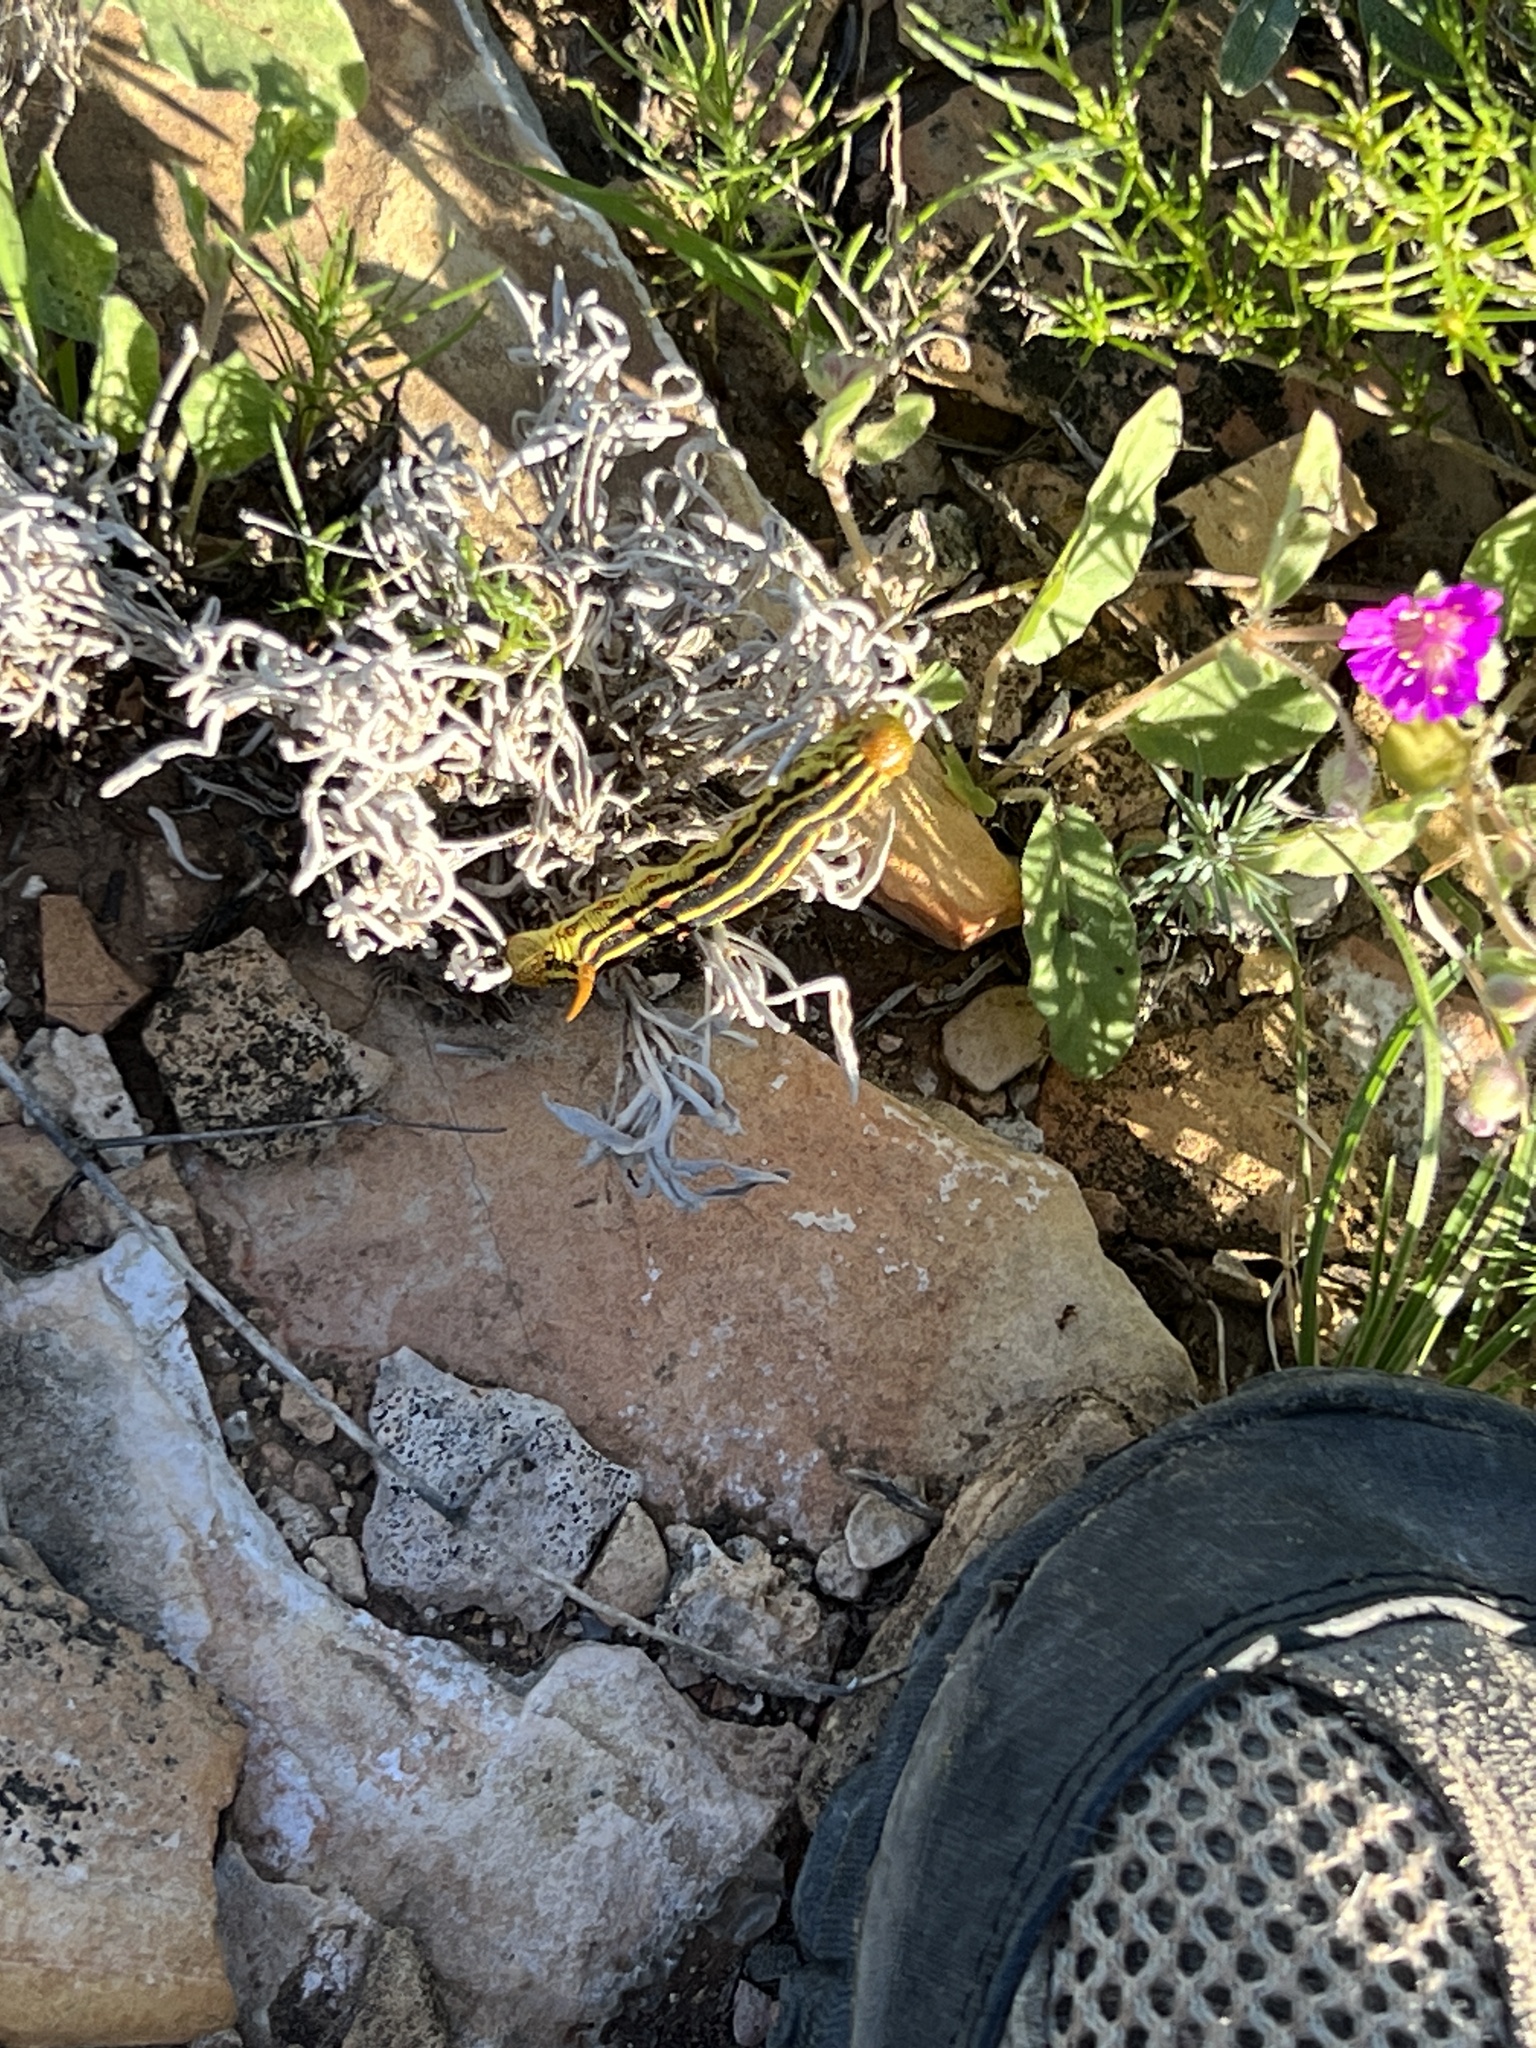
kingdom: Animalia
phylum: Arthropoda
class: Insecta
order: Lepidoptera
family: Sphingidae
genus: Hyles
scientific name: Hyles lineata
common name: White-lined sphinx
